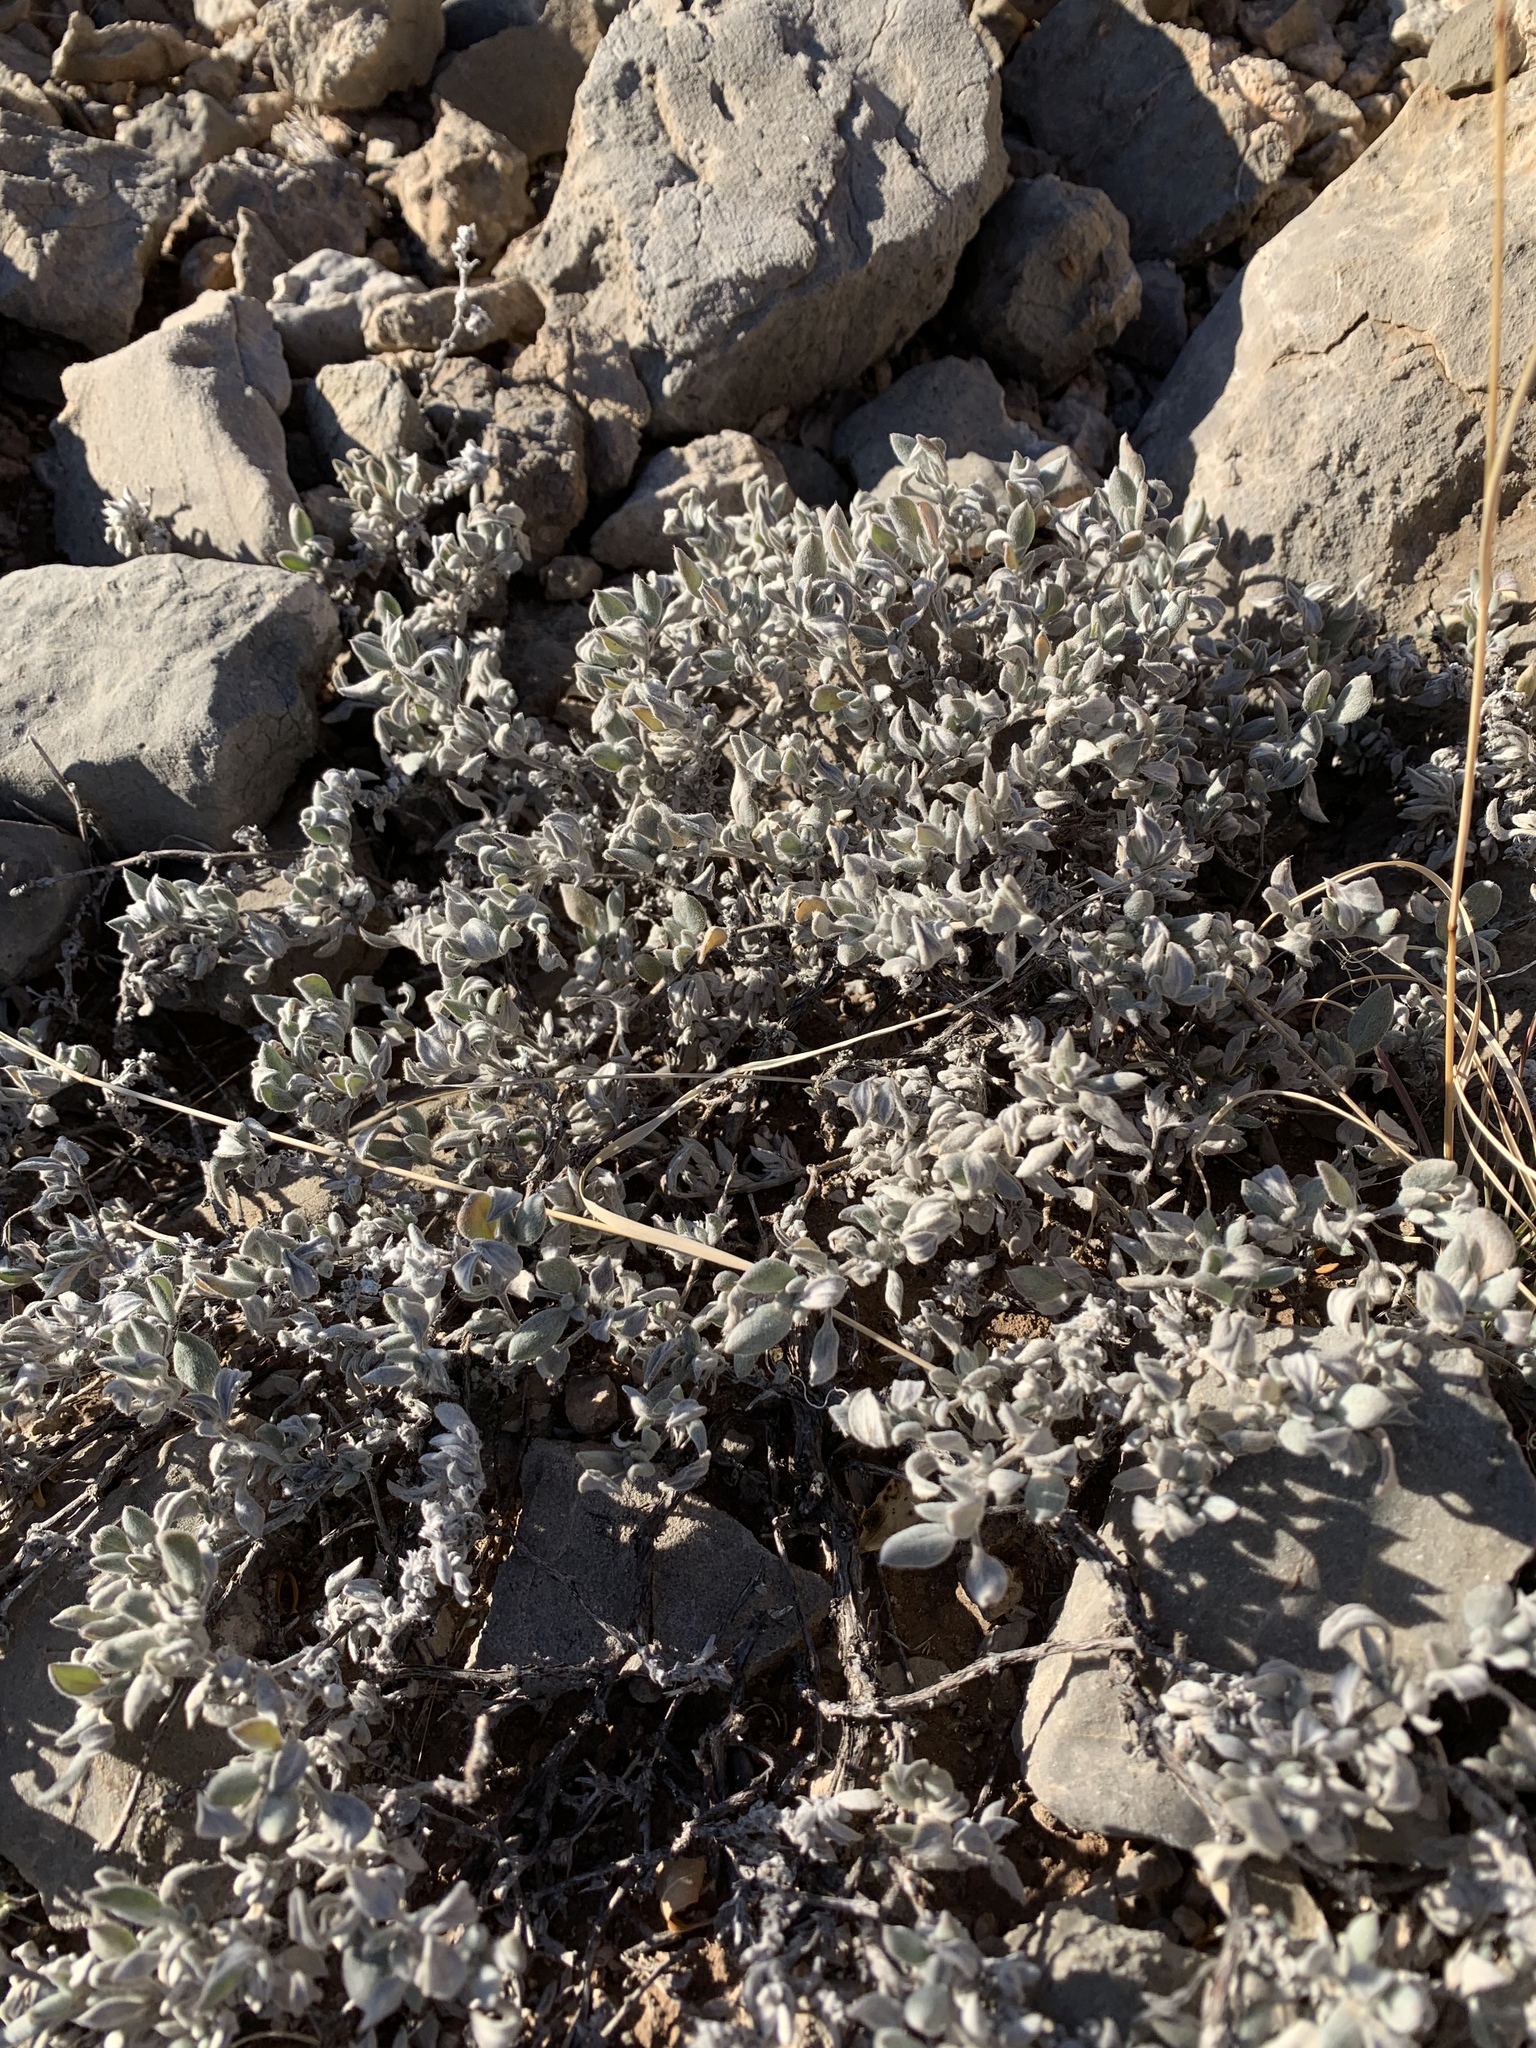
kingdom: Plantae
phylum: Tracheophyta
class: Magnoliopsida
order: Boraginales
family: Ehretiaceae
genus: Tiquilia
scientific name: Tiquilia canescens
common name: Hairy tiquilia
